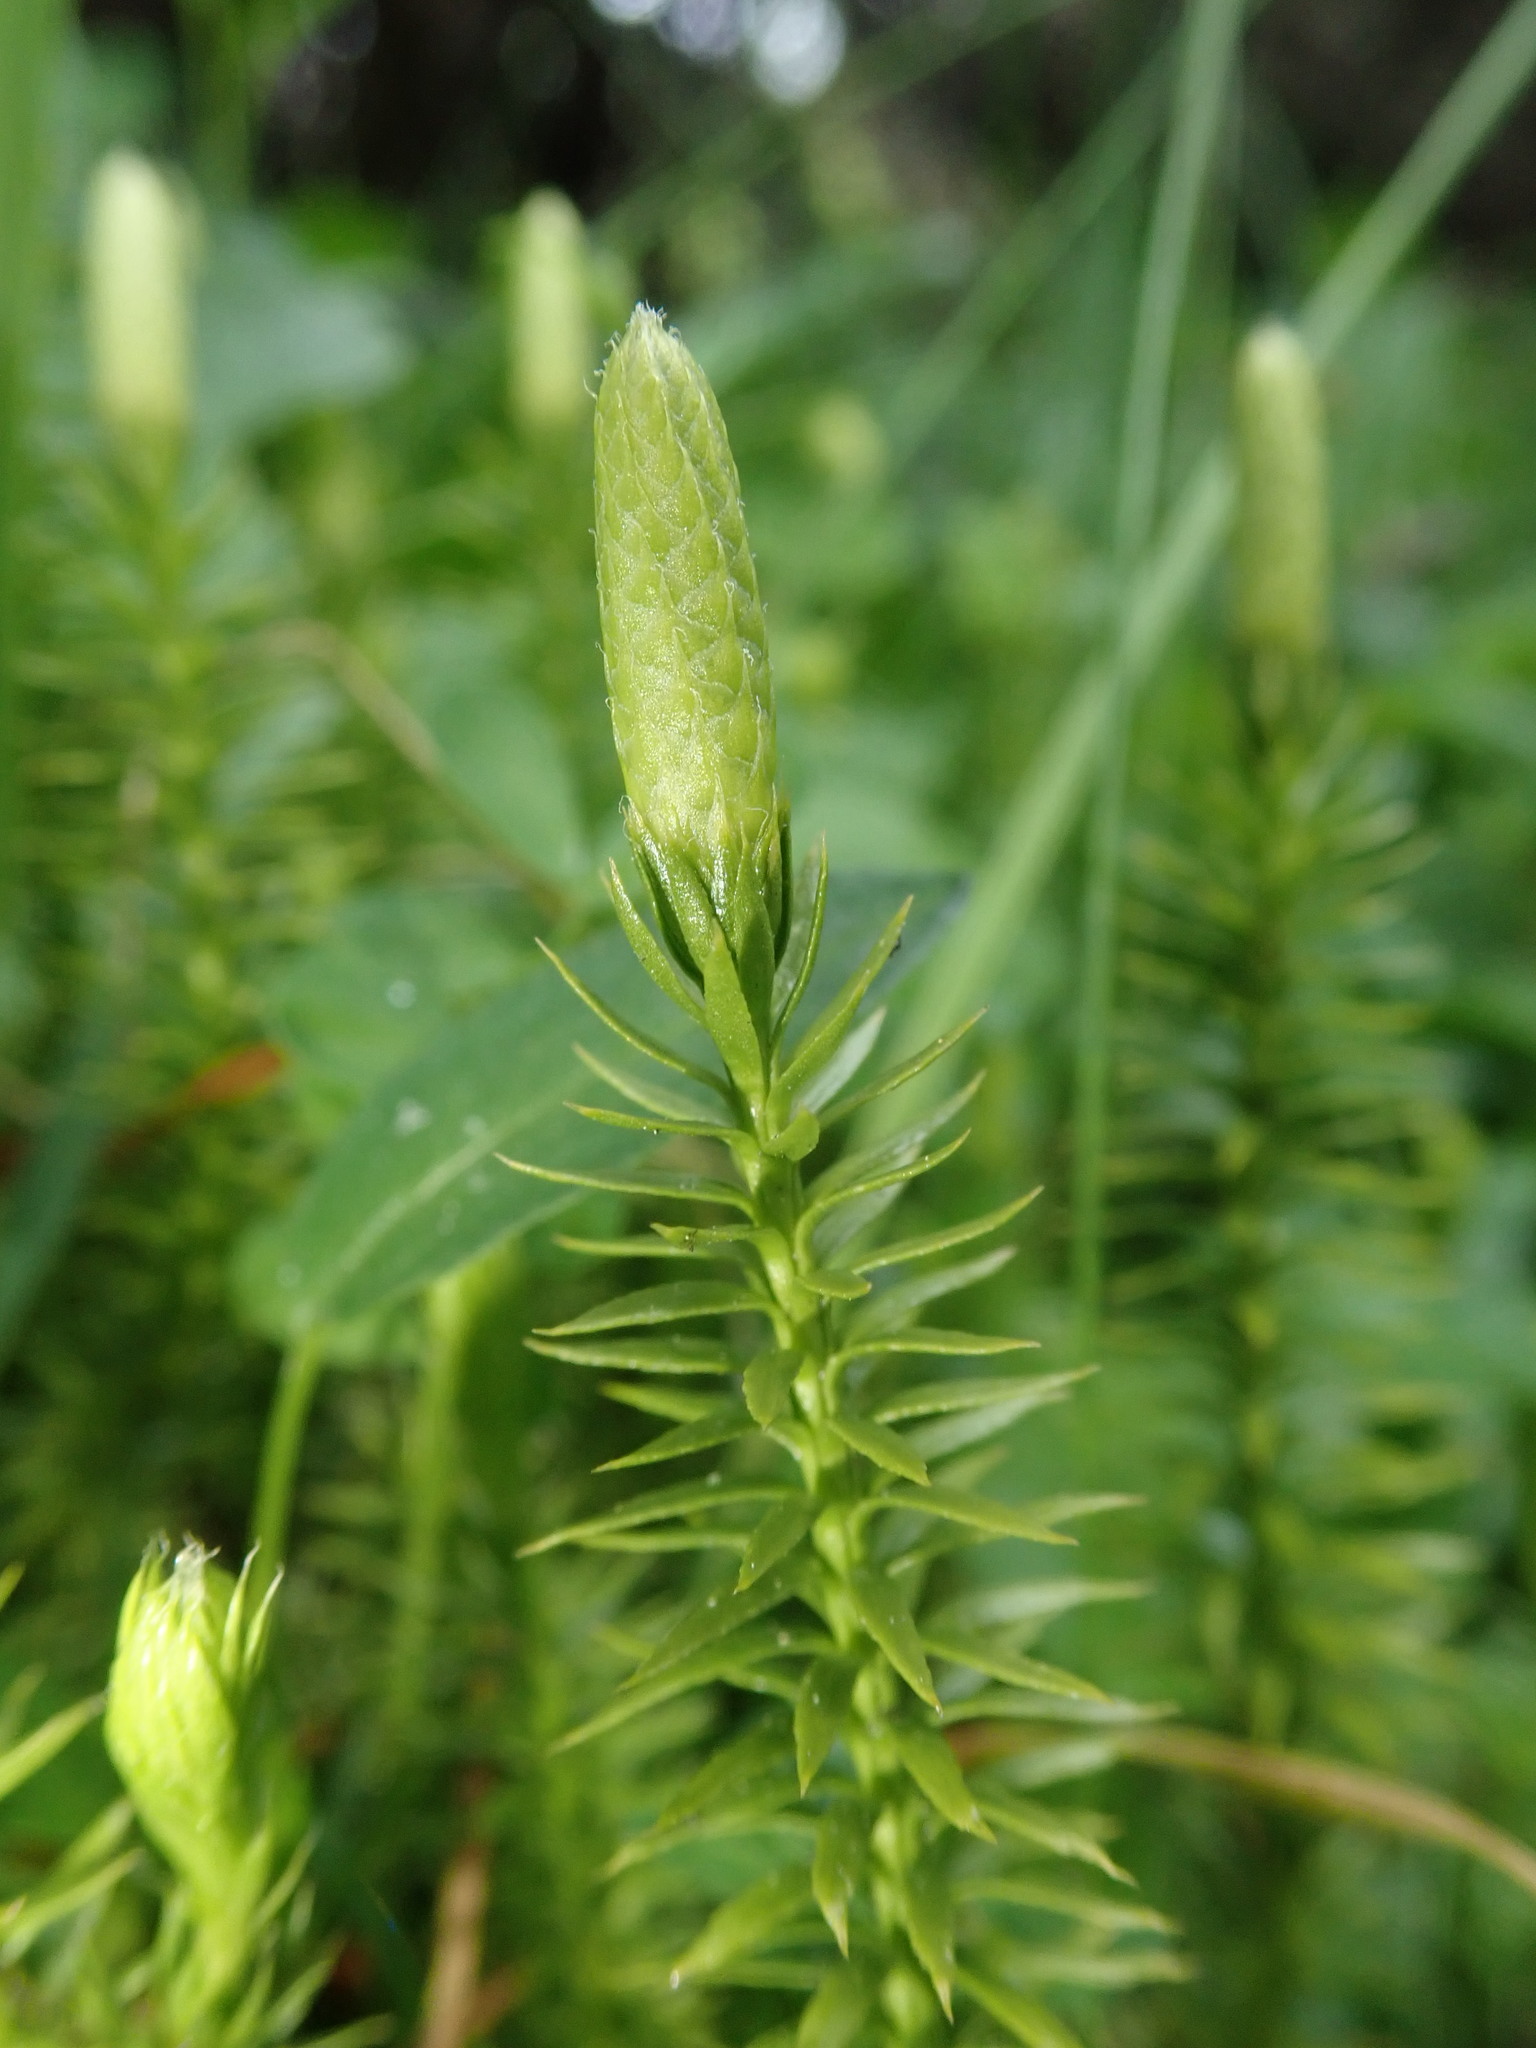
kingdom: Plantae
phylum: Tracheophyta
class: Lycopodiopsida
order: Lycopodiales
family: Lycopodiaceae
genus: Spinulum
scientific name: Spinulum annotinum
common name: Interrupted club-moss
